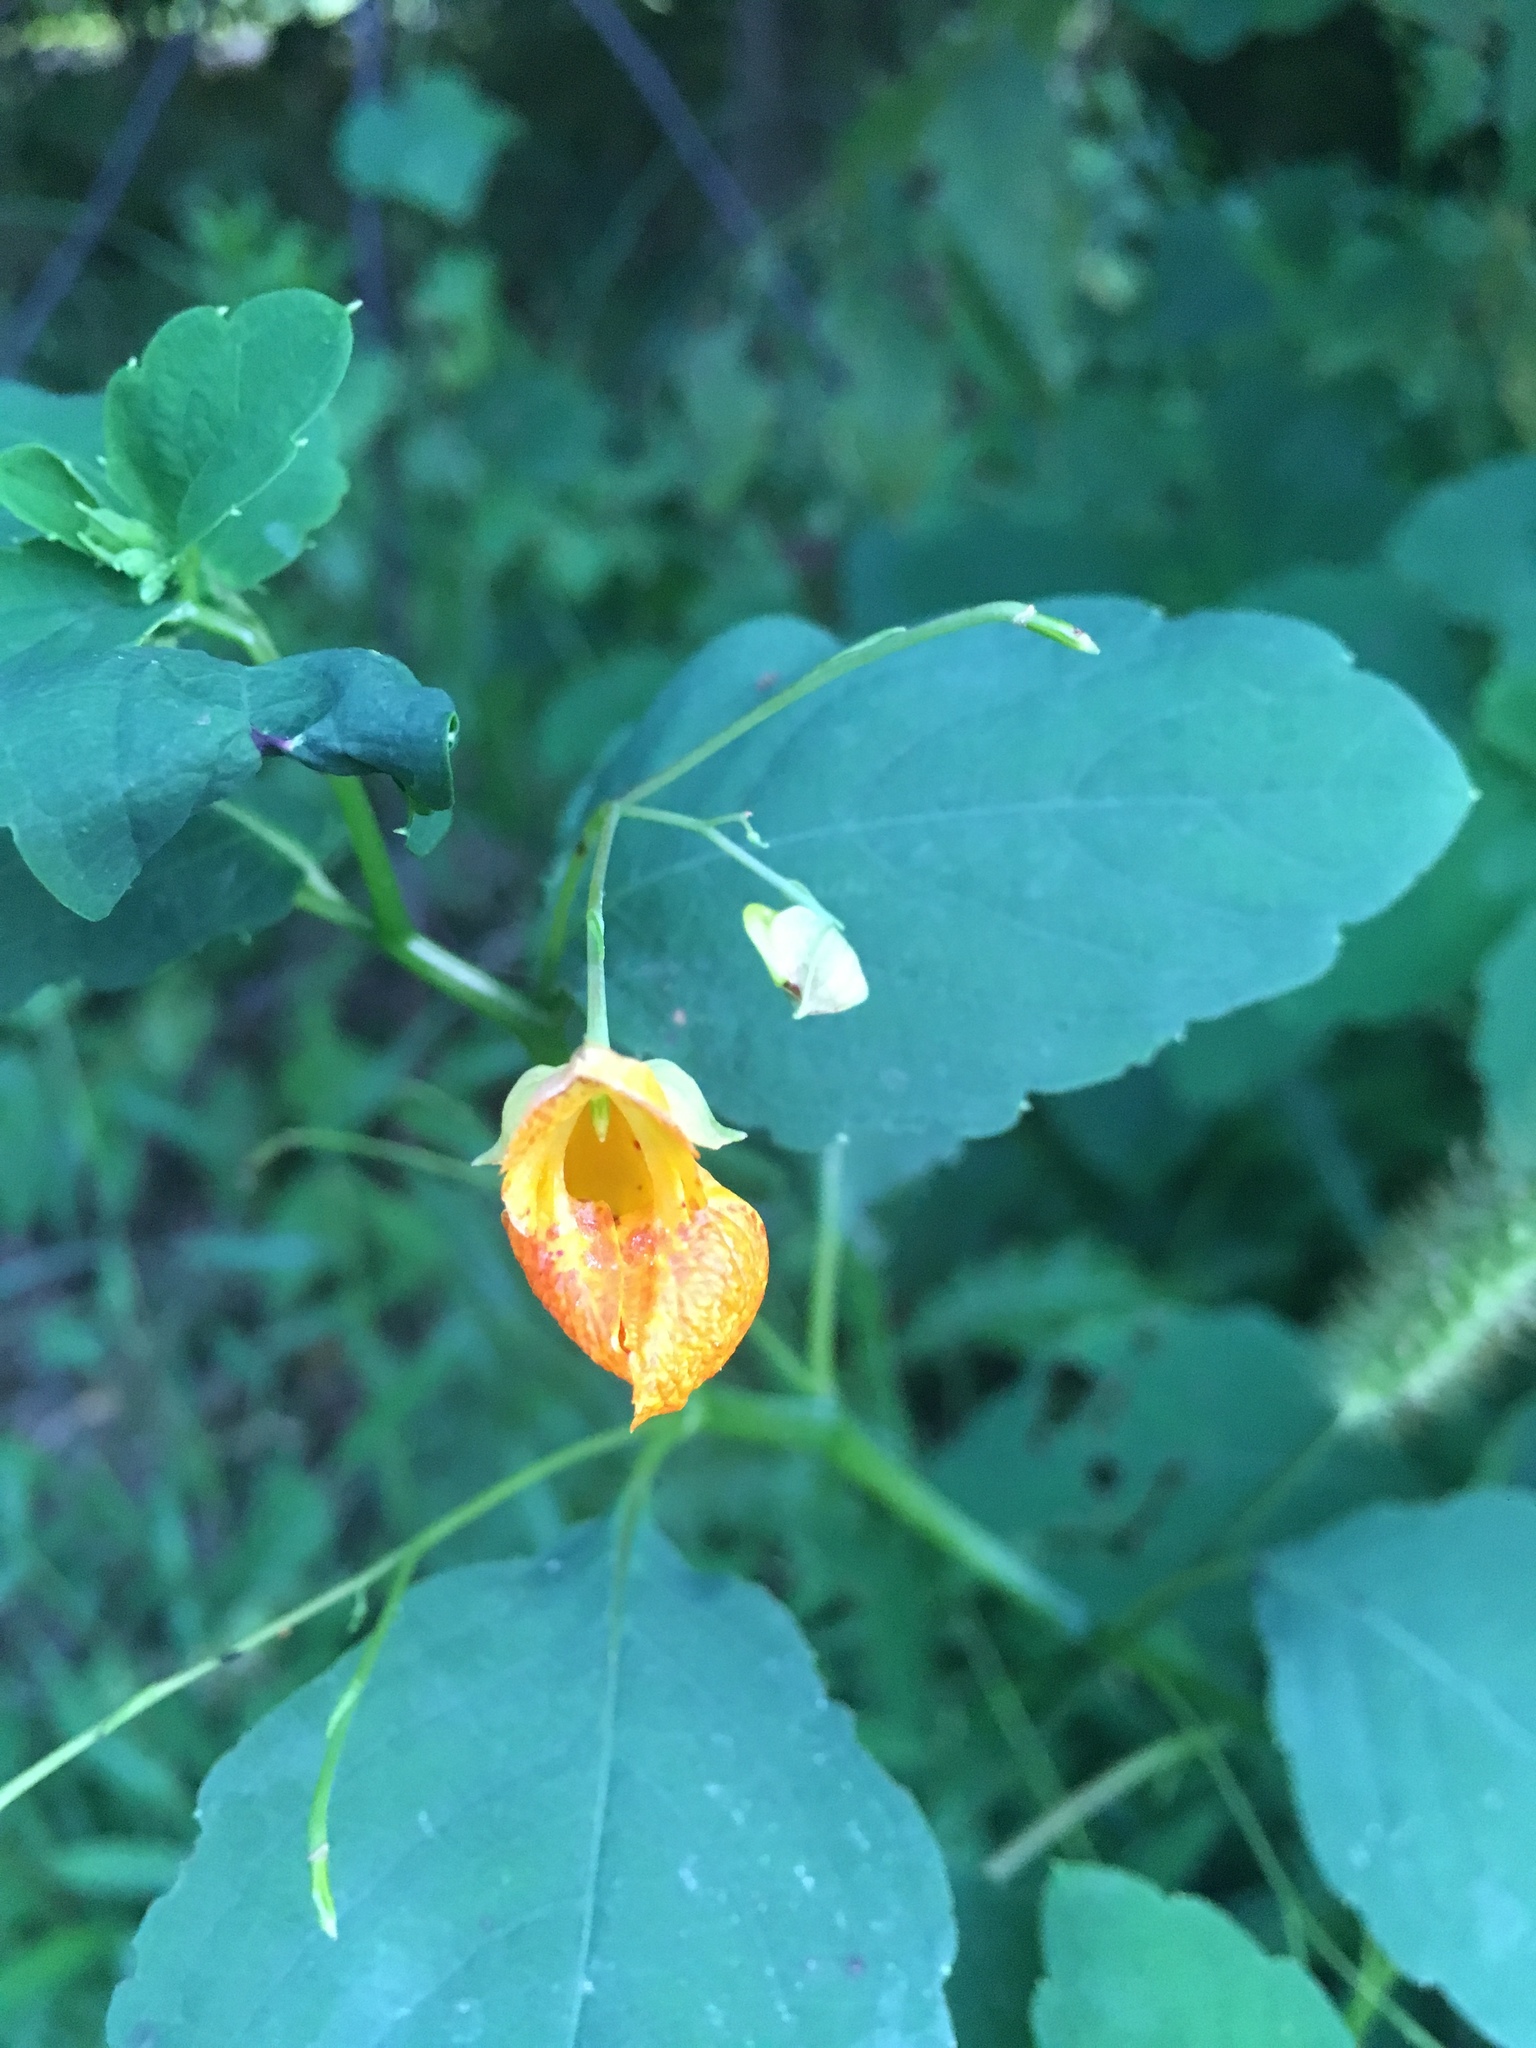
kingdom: Plantae
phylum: Tracheophyta
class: Magnoliopsida
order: Ericales
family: Balsaminaceae
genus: Impatiens
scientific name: Impatiens capensis
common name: Orange balsam
